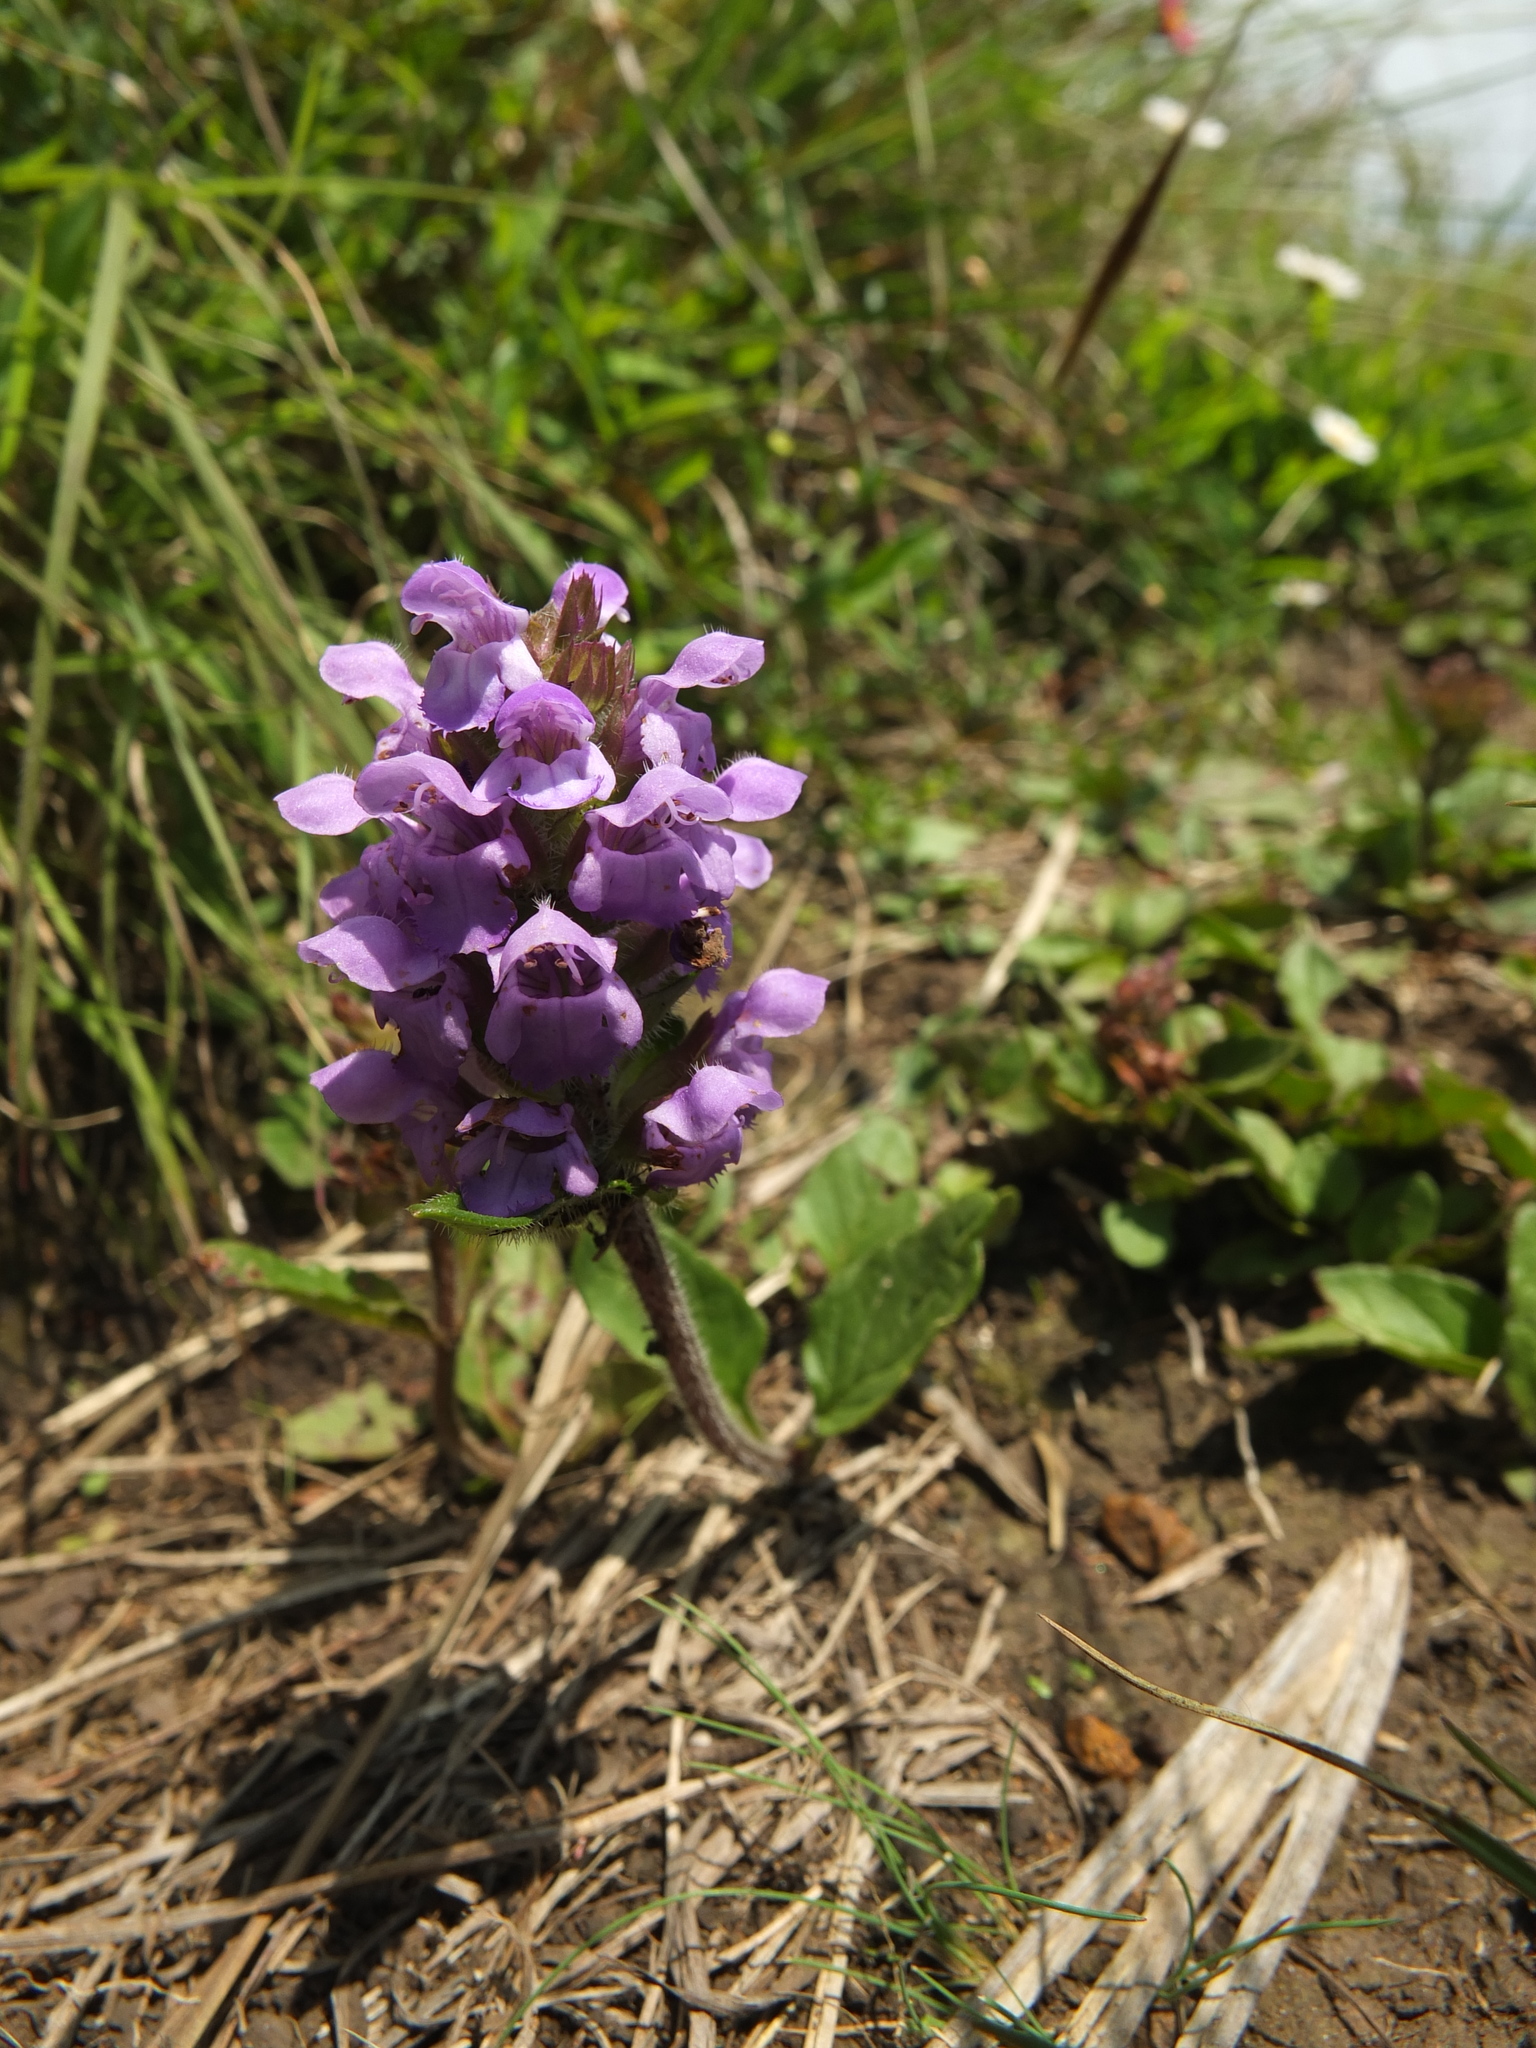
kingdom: Plantae
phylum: Tracheophyta
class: Magnoliopsida
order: Lamiales
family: Lamiaceae
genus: Prunella
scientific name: Prunella vulgaris
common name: Heal-all
